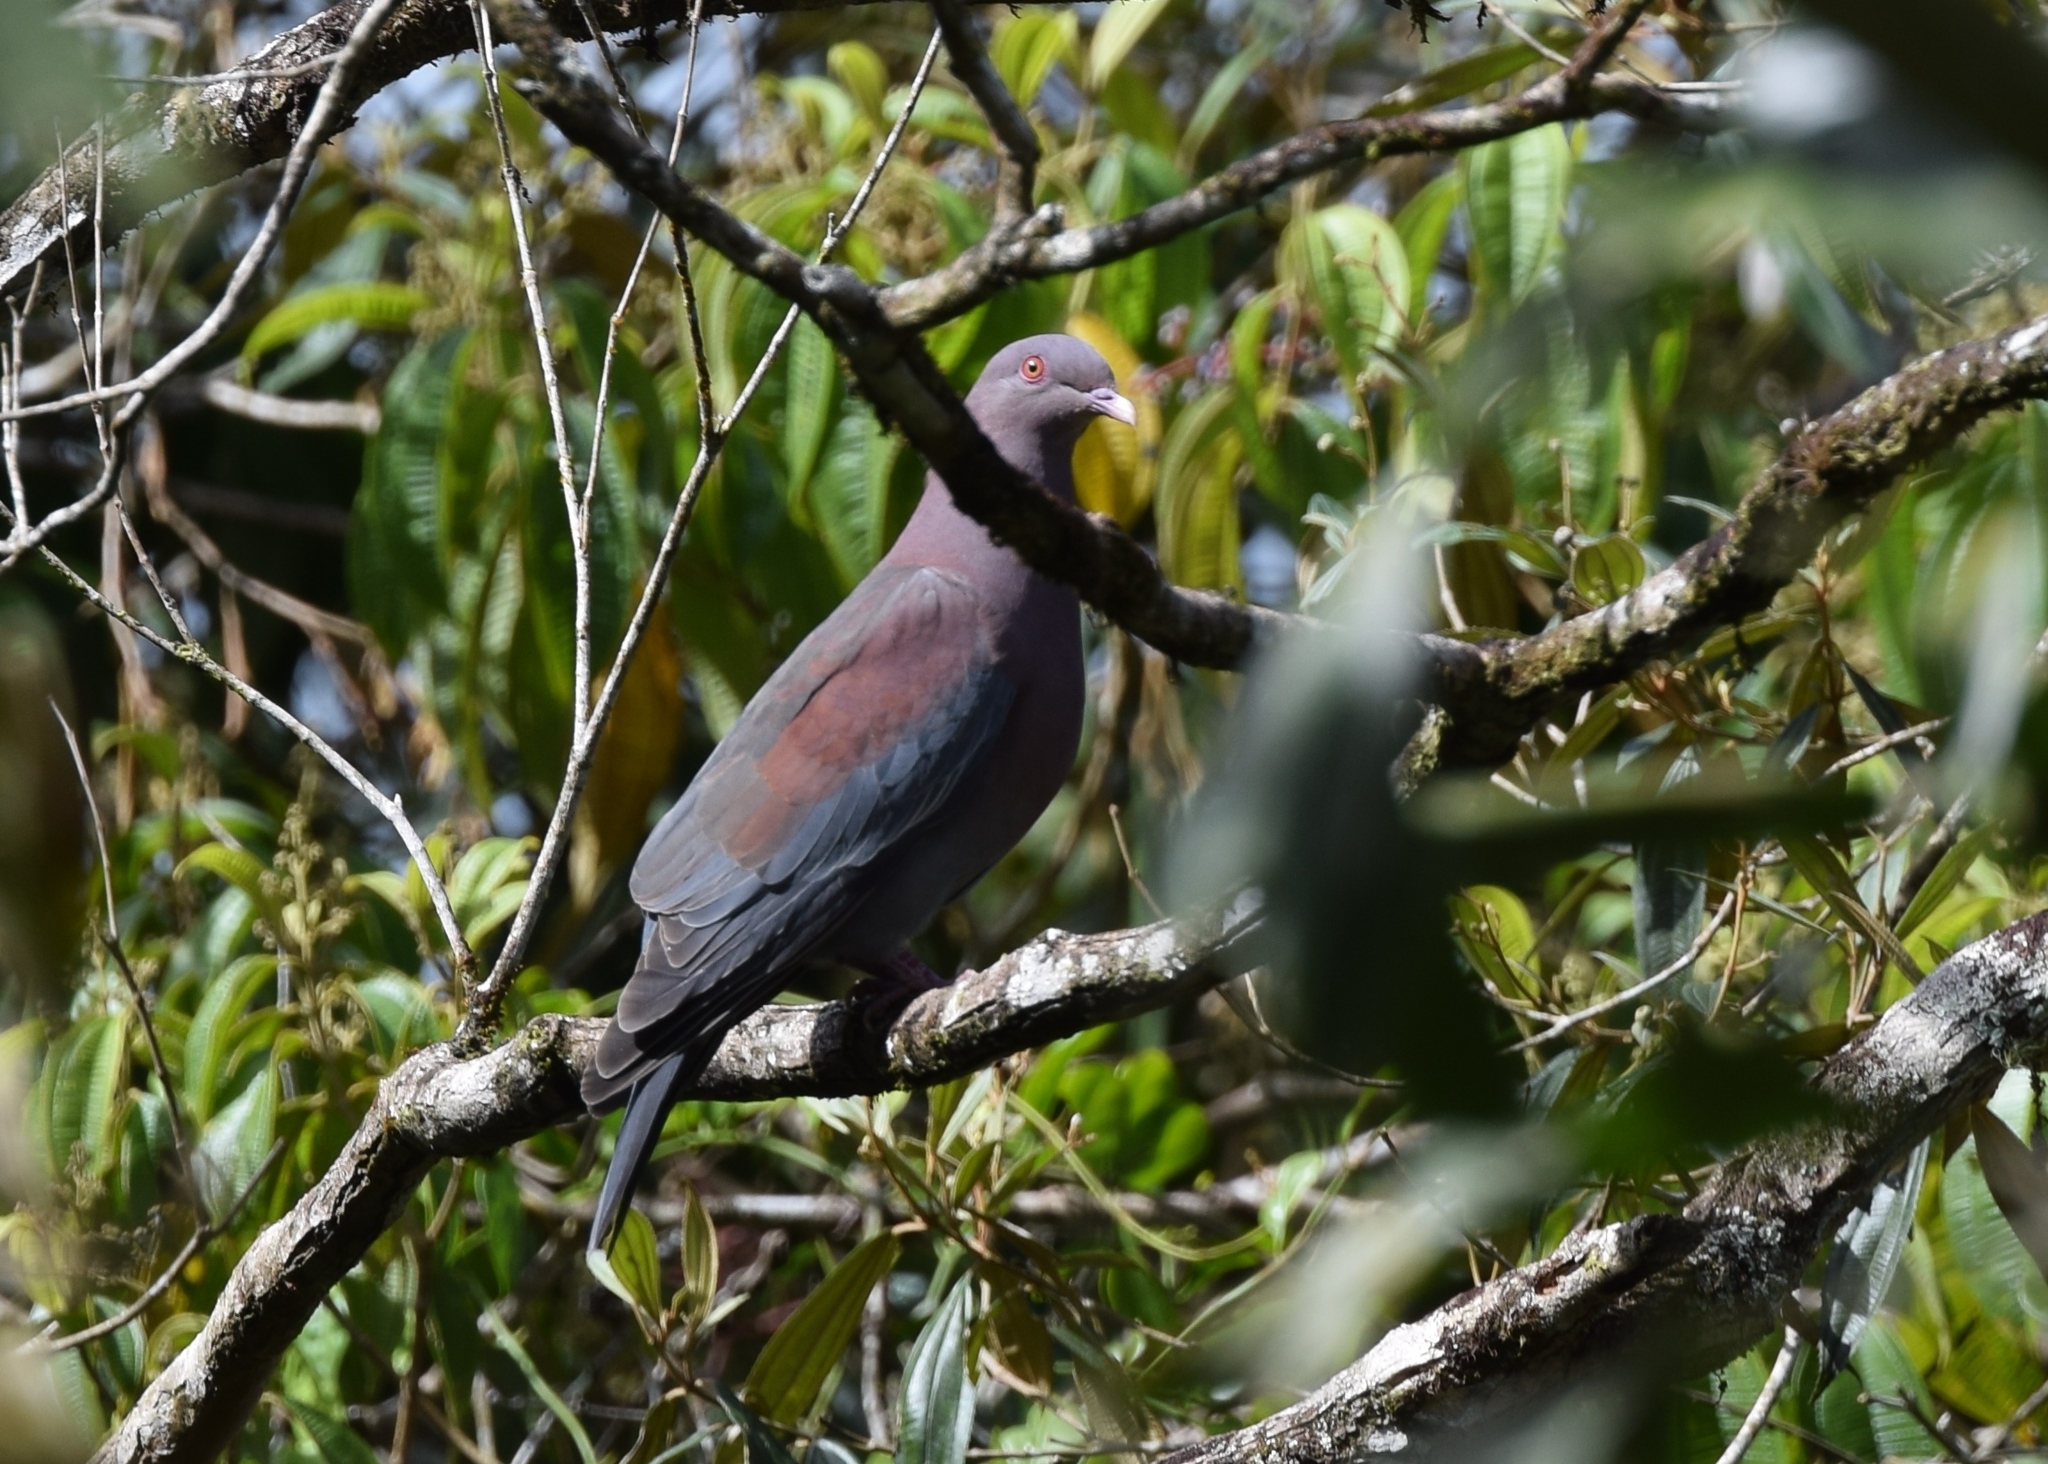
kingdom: Animalia
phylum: Chordata
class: Aves
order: Columbiformes
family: Columbidae
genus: Patagioenas
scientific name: Patagioenas flavirostris
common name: Red-billed pigeon
